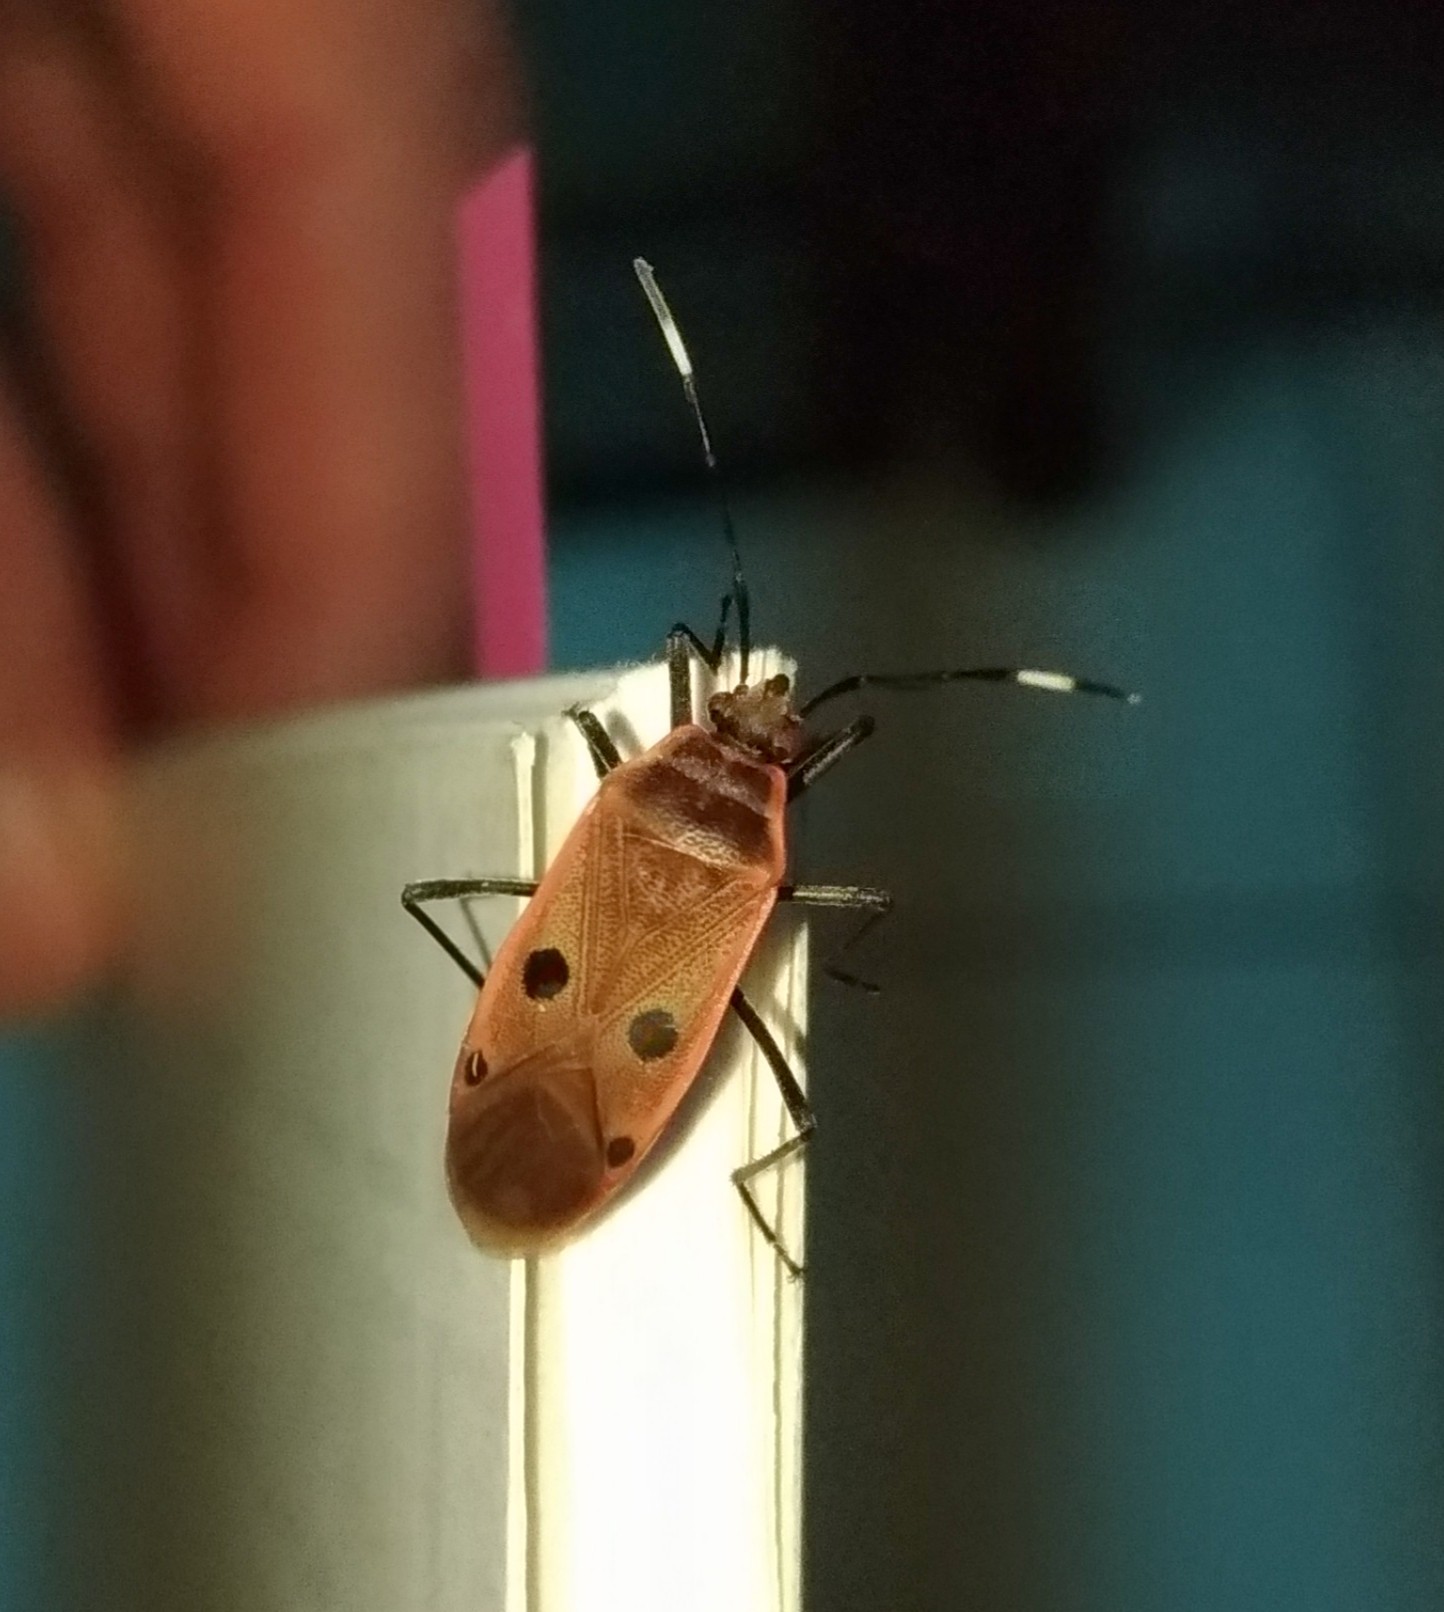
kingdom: Animalia
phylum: Arthropoda
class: Insecta
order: Hemiptera
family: Largidae
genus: Physopelta
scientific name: Physopelta quadriguttata
